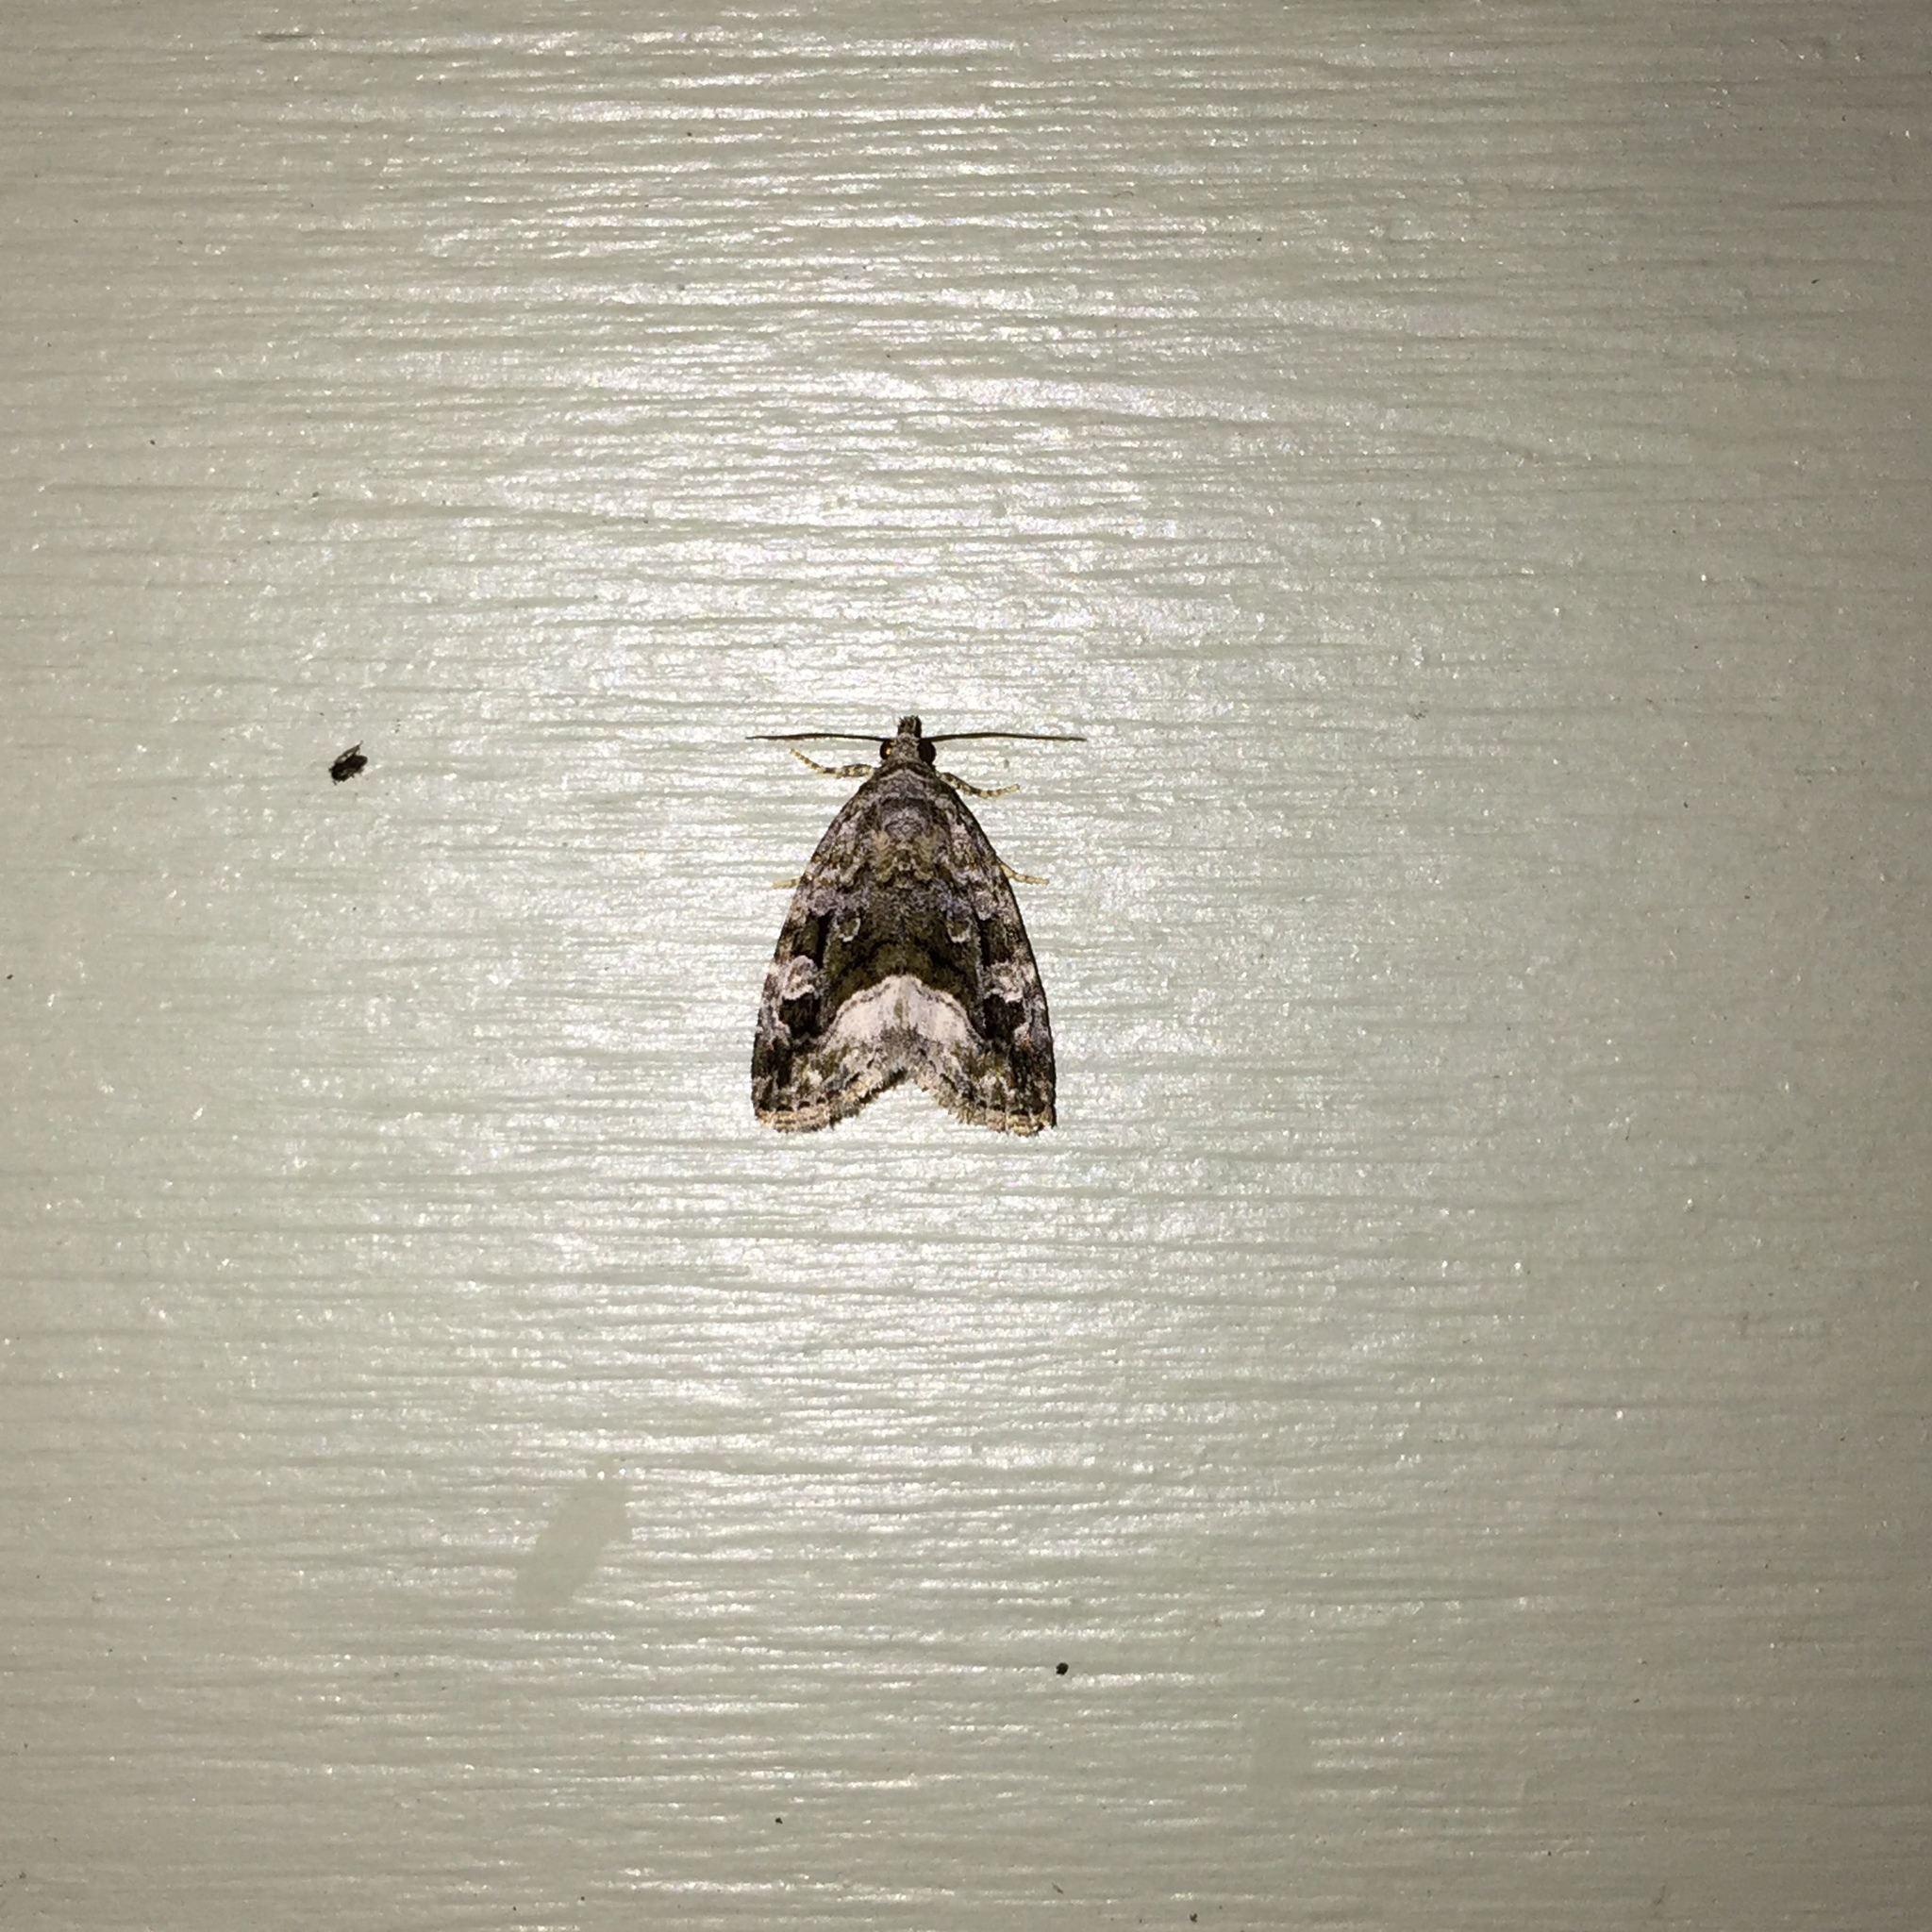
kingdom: Animalia
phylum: Arthropoda
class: Insecta
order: Lepidoptera
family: Noctuidae
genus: Protodeltote
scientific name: Protodeltote muscosula
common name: Large mossy glyph
